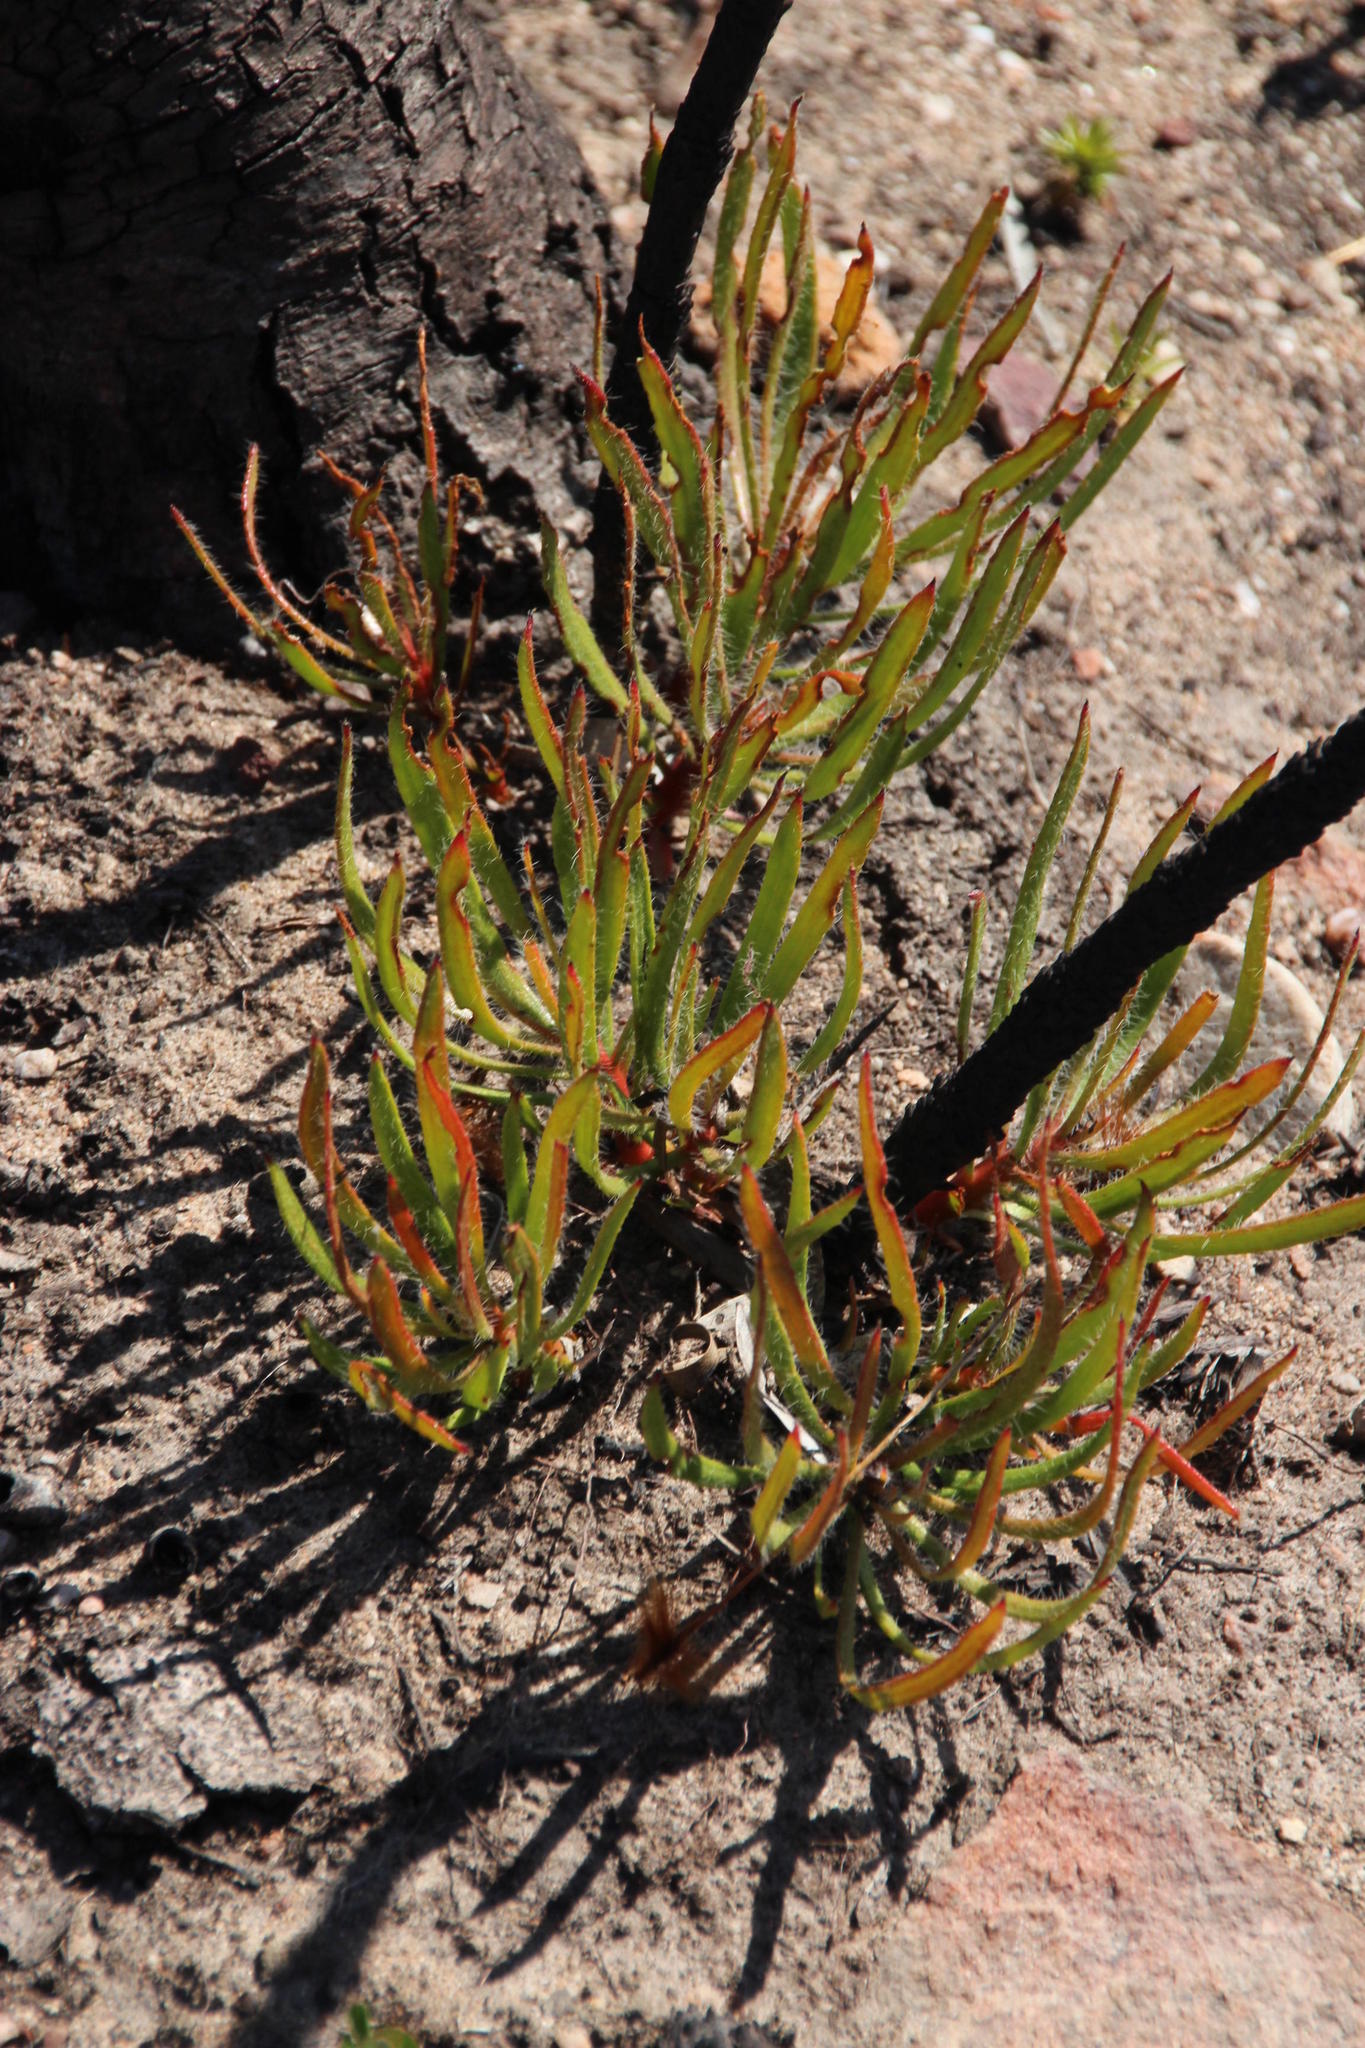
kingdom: Plantae
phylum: Tracheophyta
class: Magnoliopsida
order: Proteales
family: Proteaceae
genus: Protea
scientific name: Protea denticulata
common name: Tooth-leaf sugarbush
